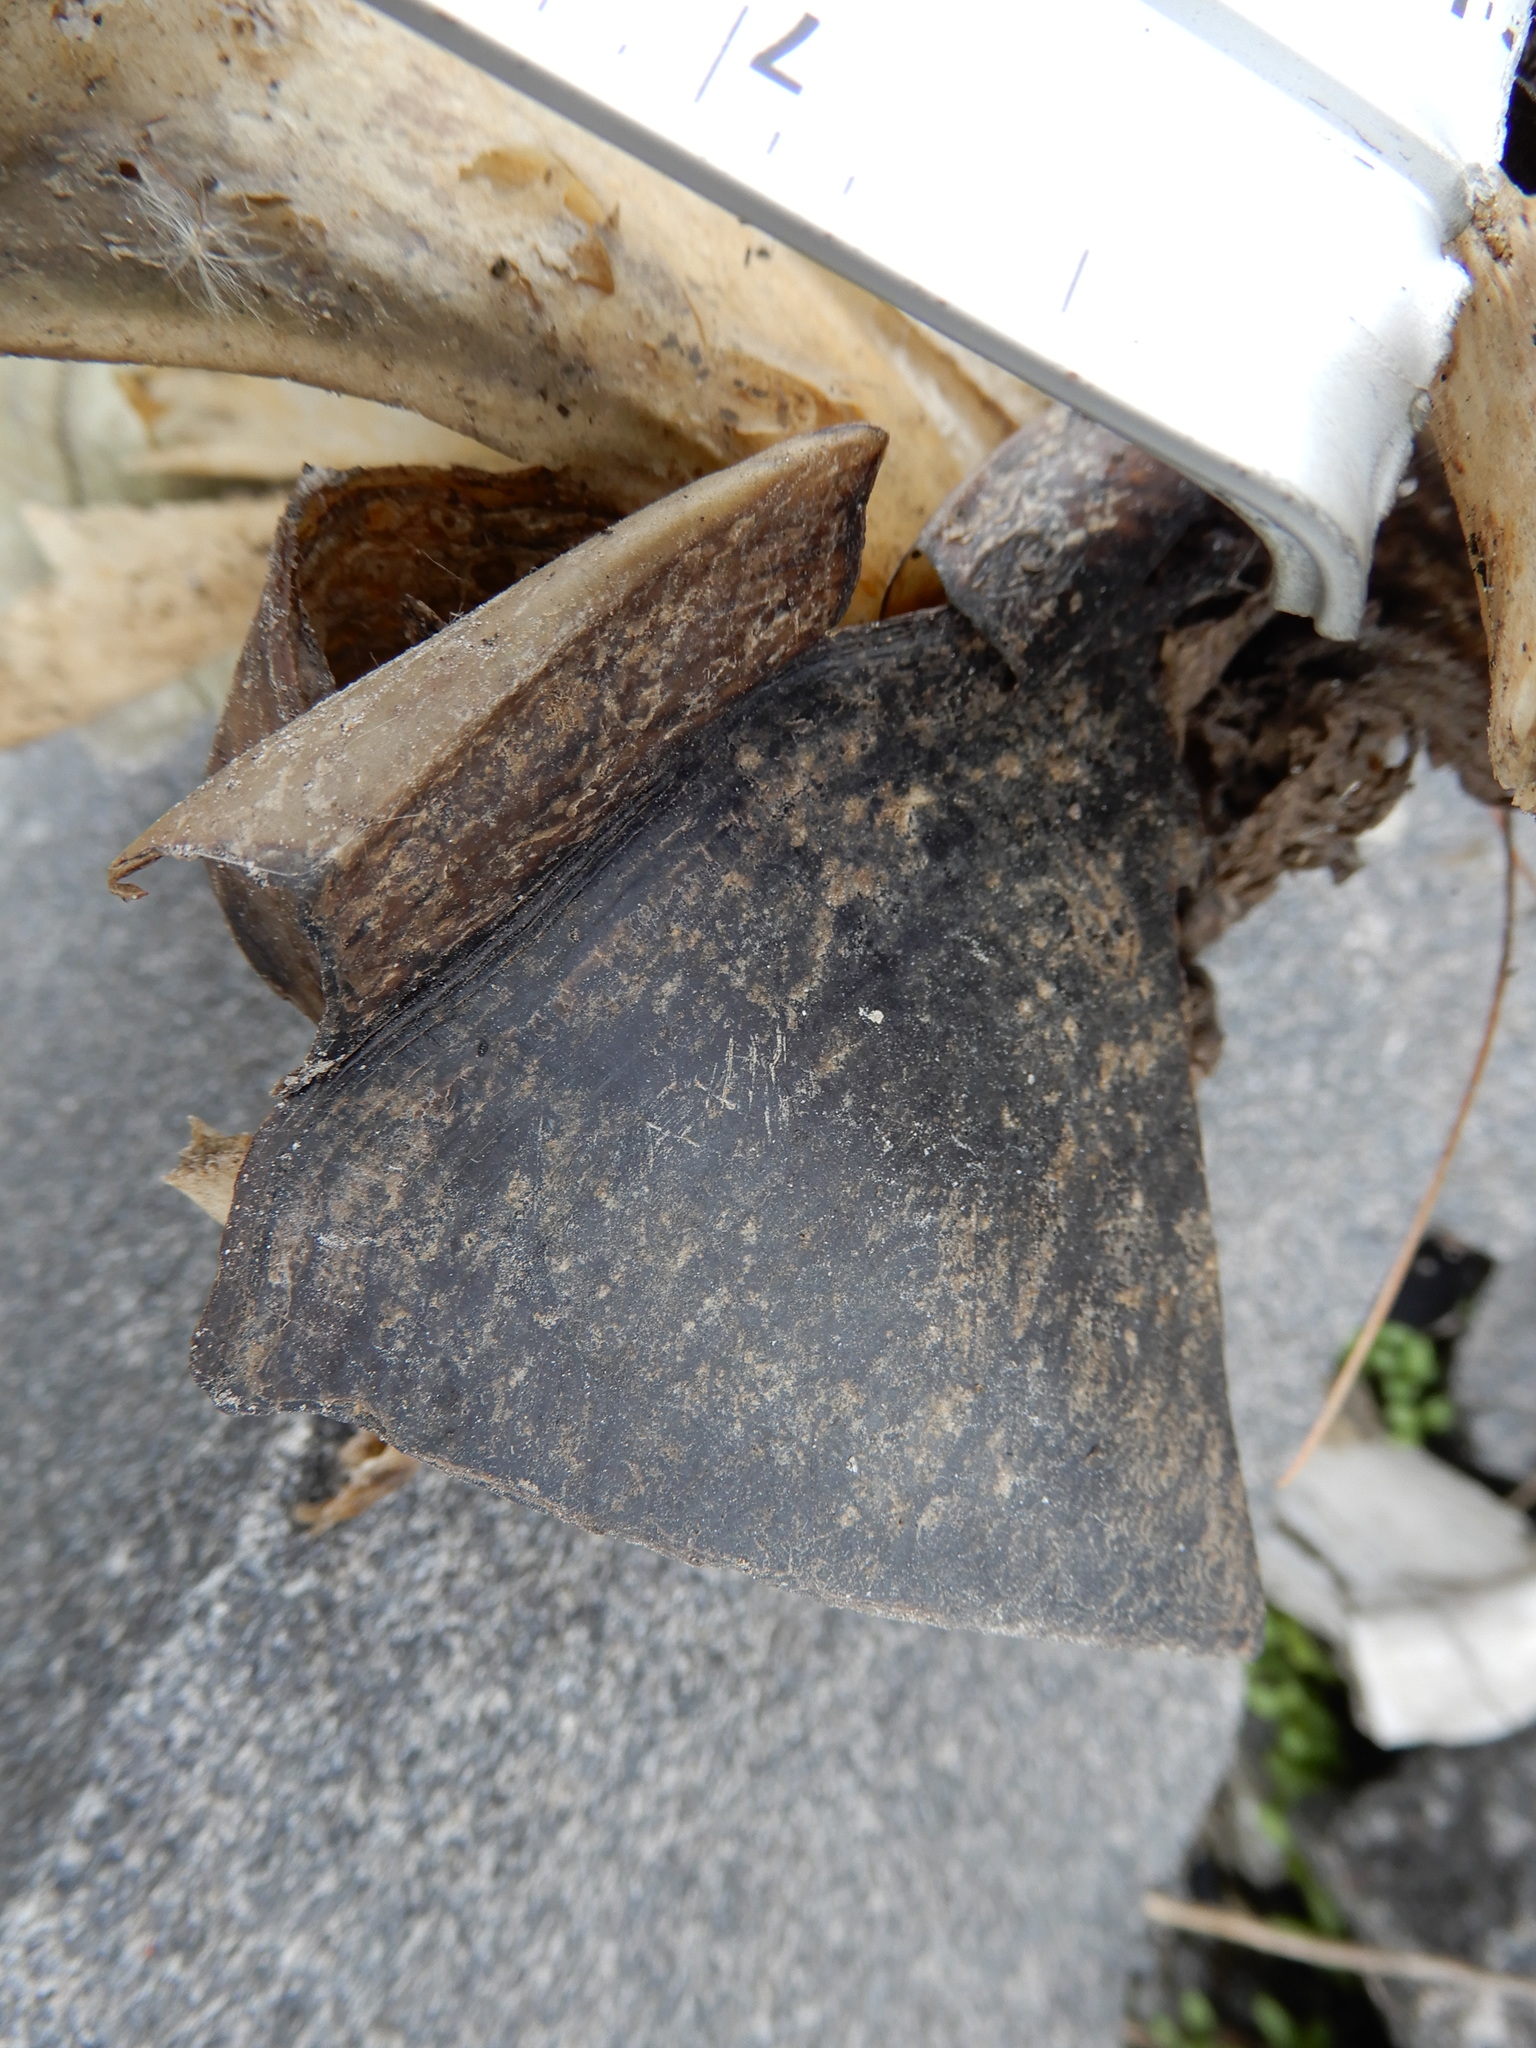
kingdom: Animalia
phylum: Chordata
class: Testudines
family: Chelydridae
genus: Chelydra
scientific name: Chelydra serpentina
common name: Common snapping turtle
